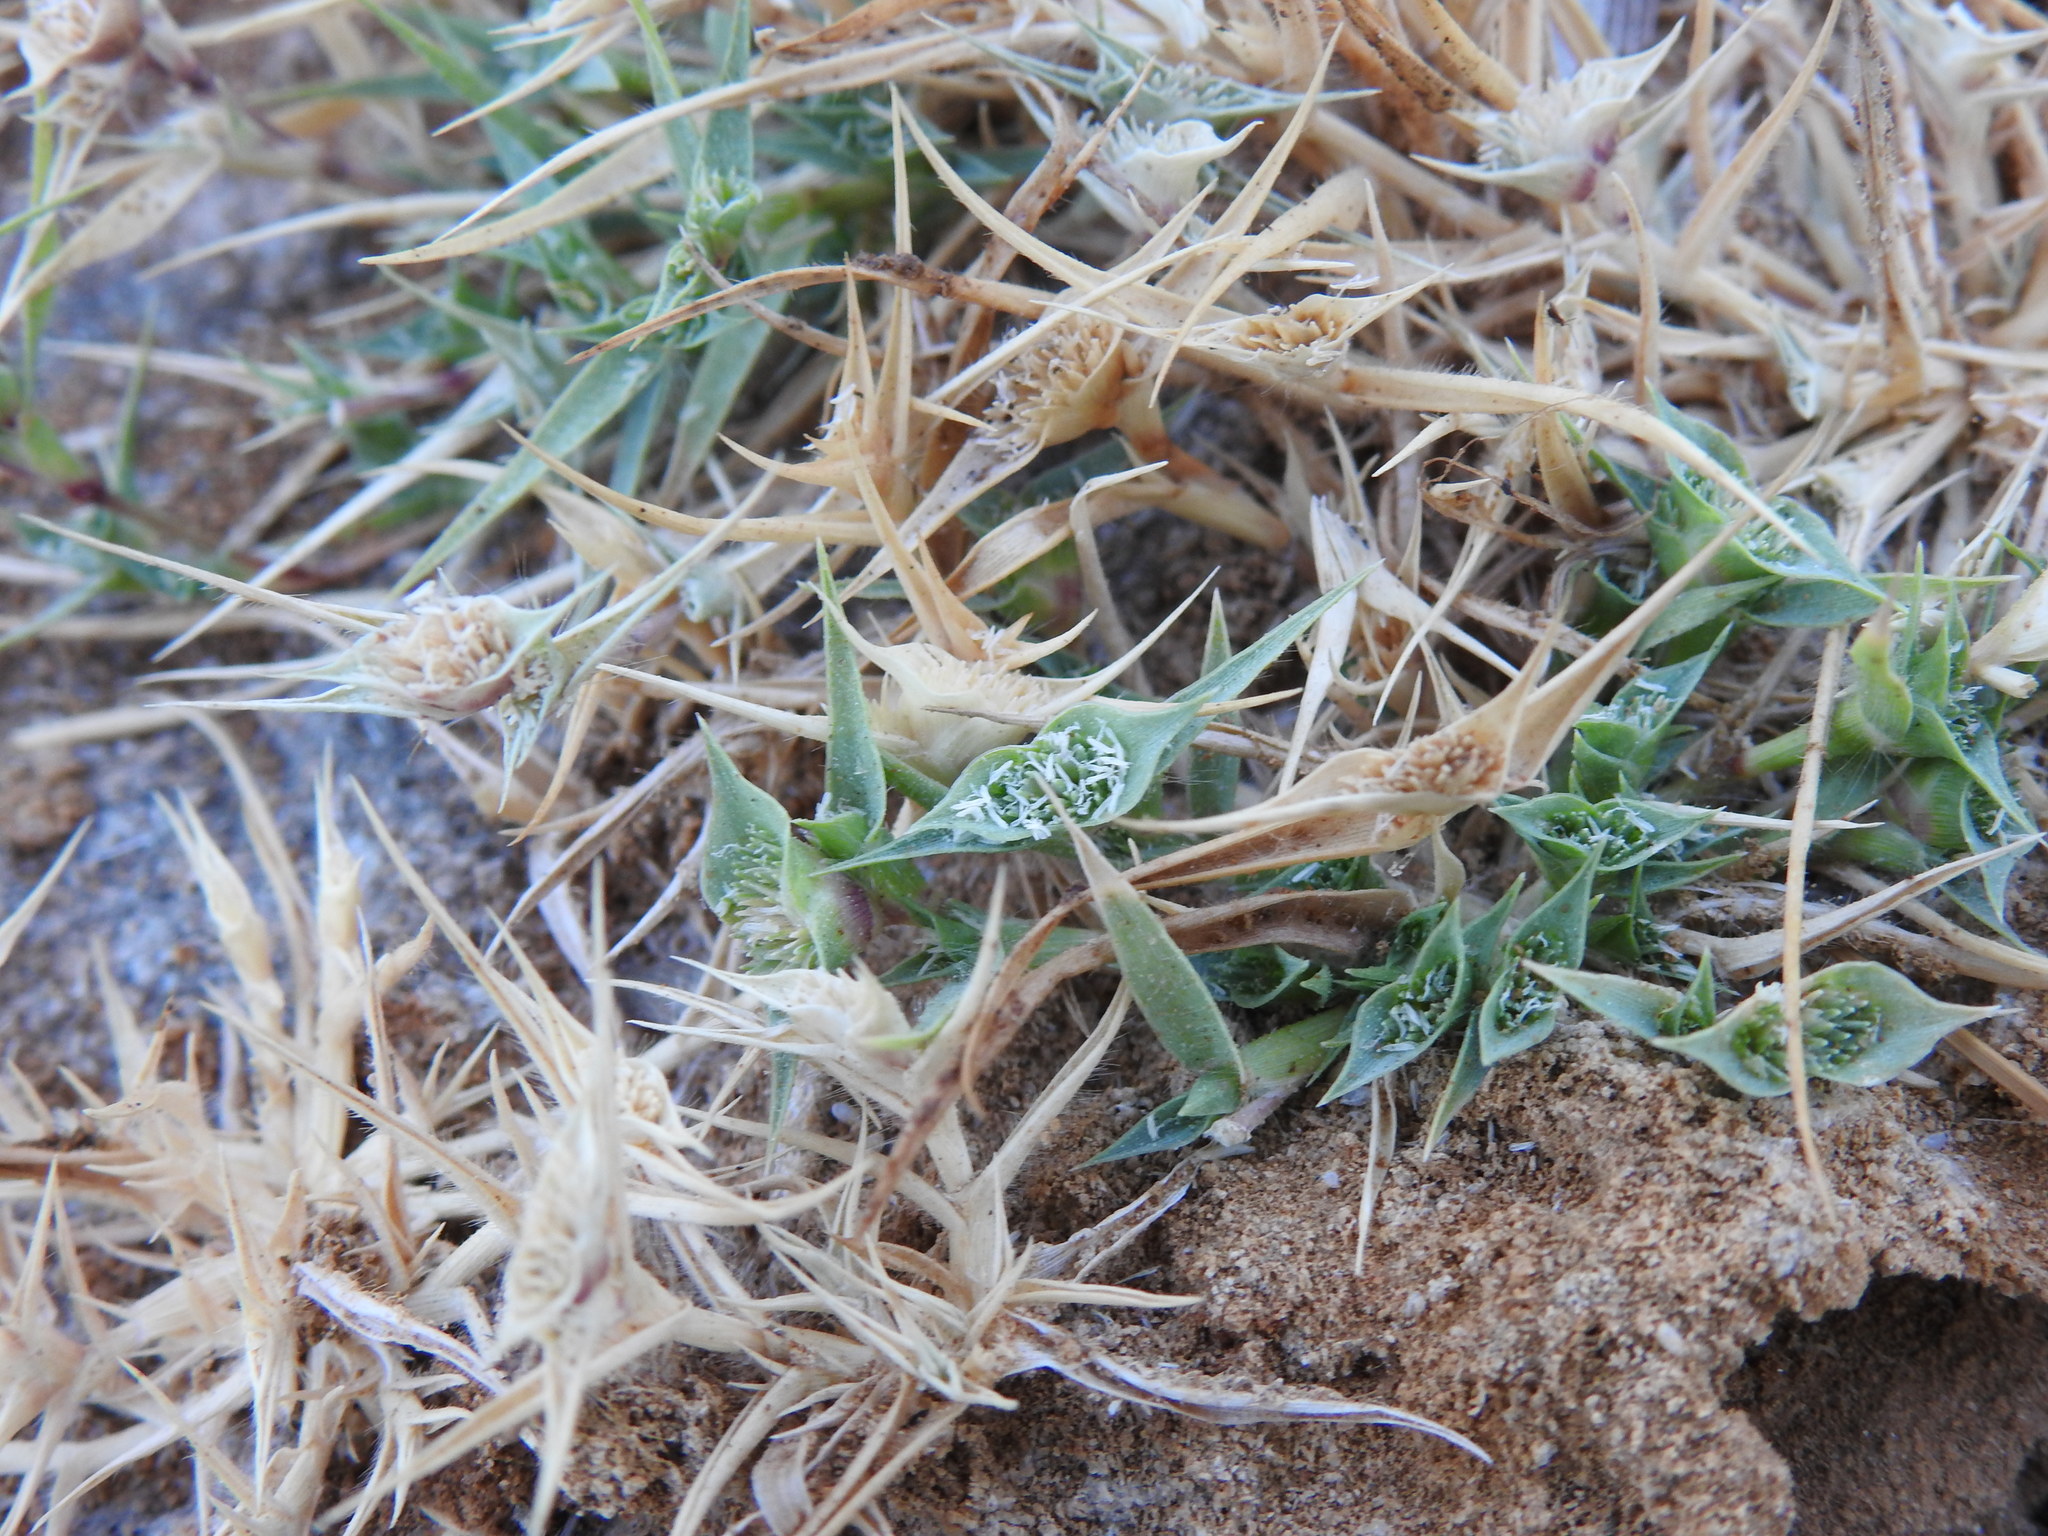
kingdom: Plantae
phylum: Tracheophyta
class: Liliopsida
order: Poales
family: Poaceae
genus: Sporobolus
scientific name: Sporobolus aculeatus
